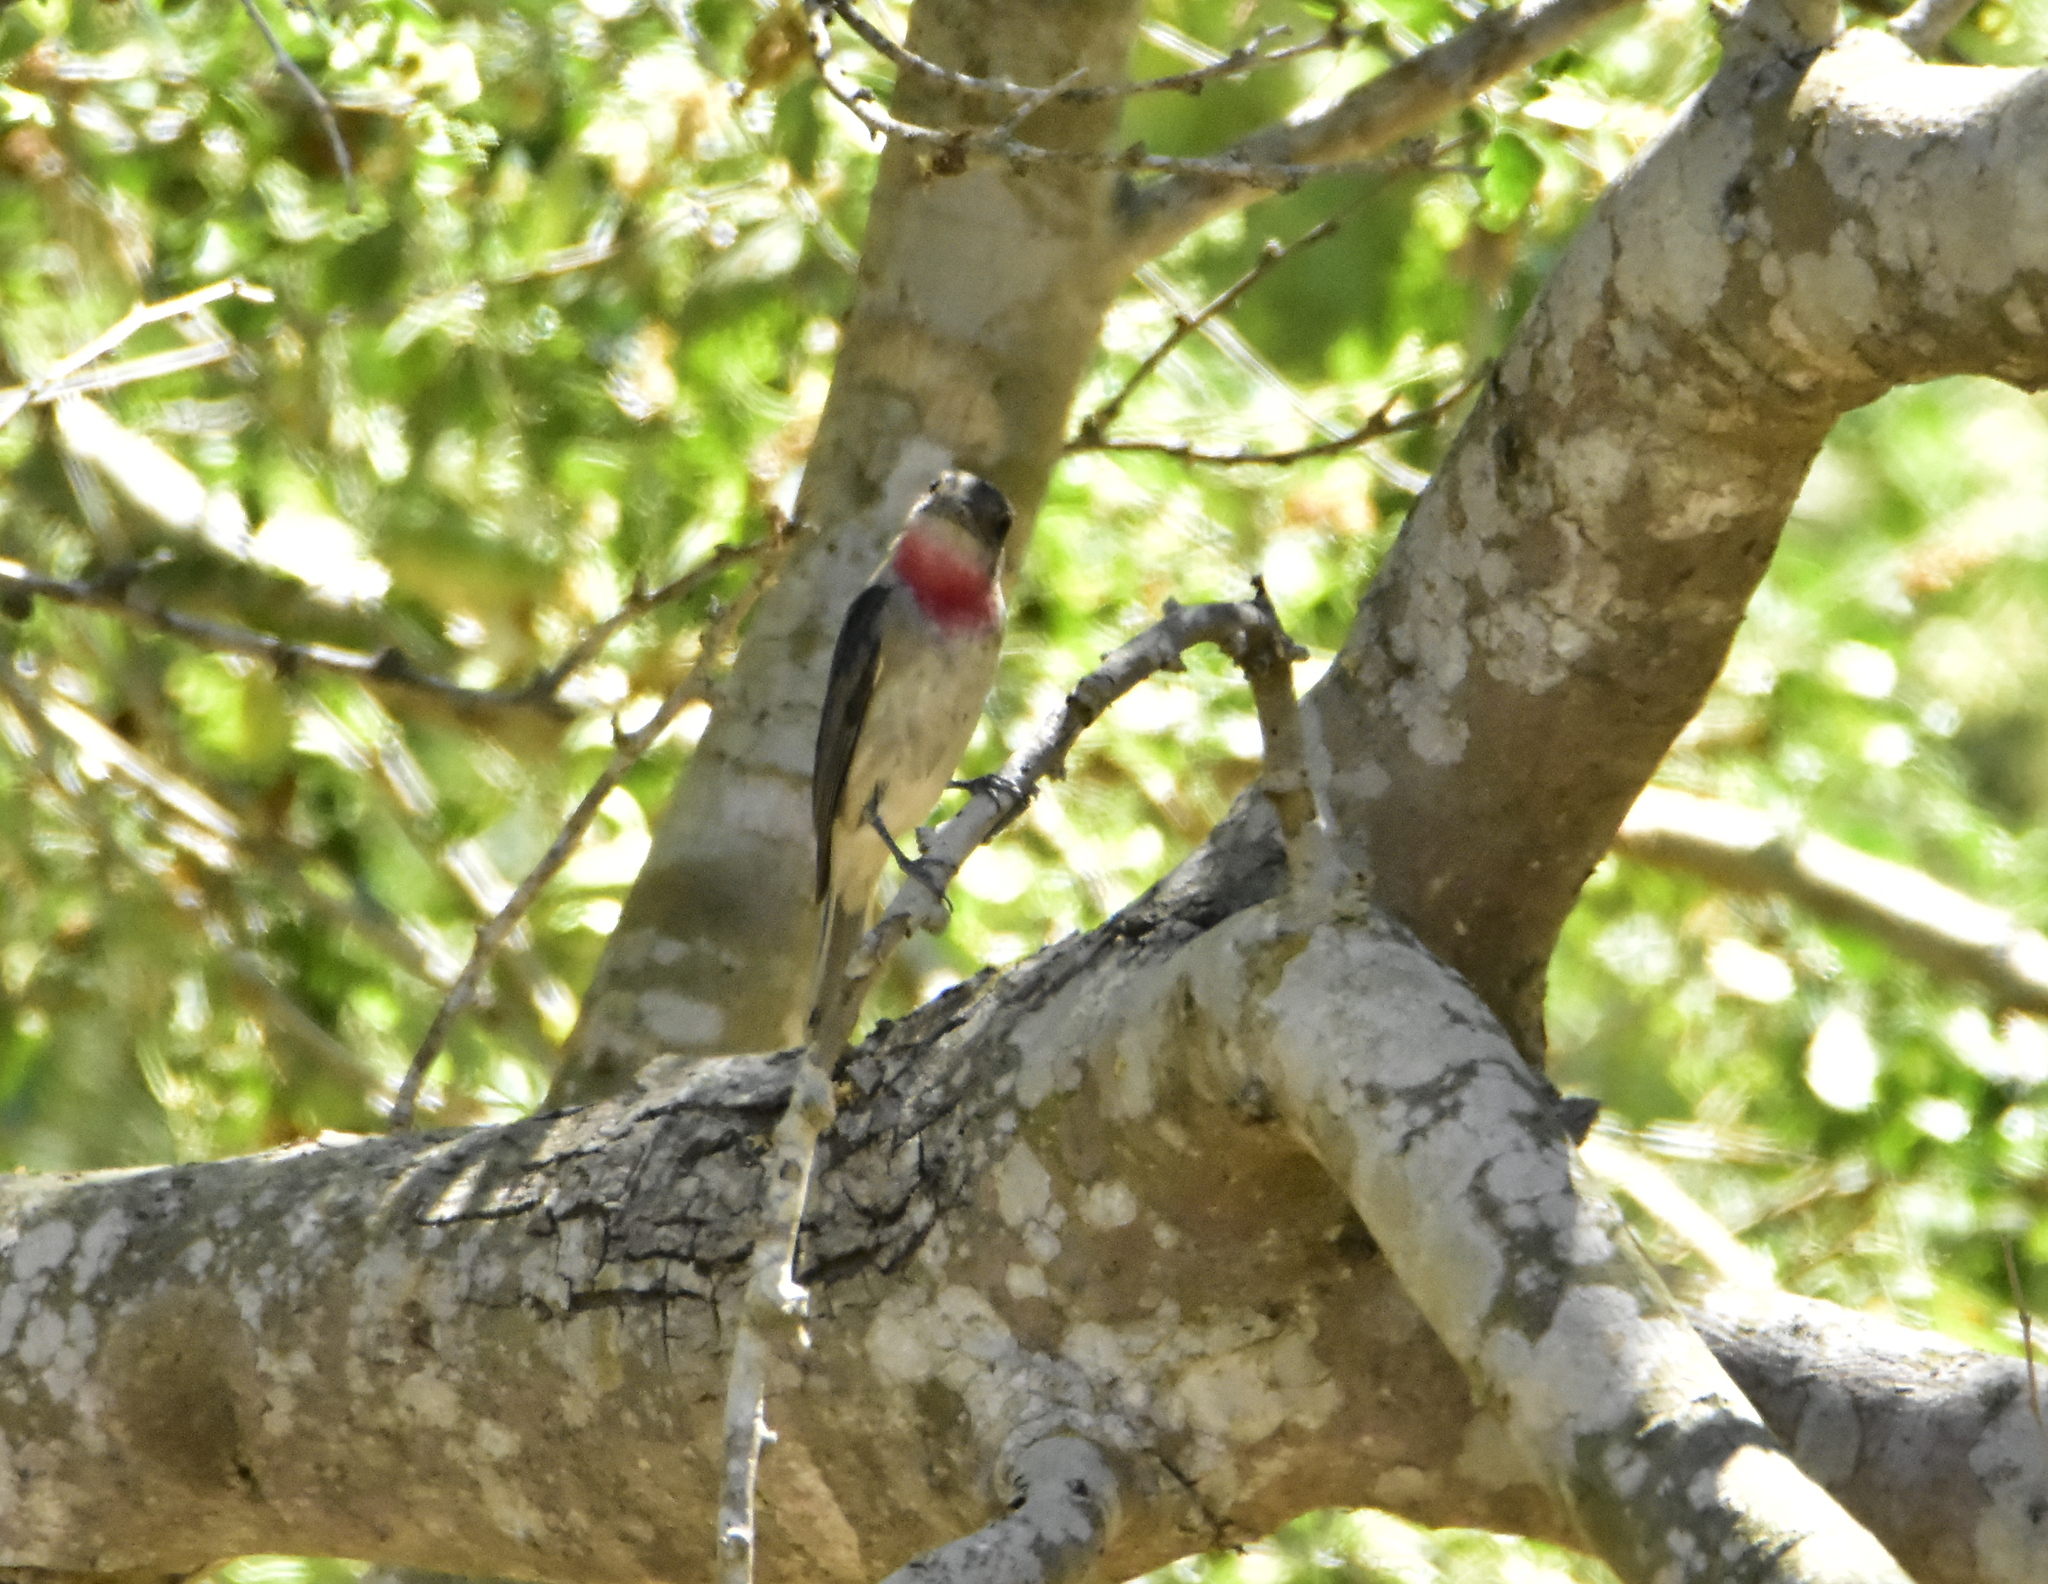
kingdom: Animalia
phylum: Chordata
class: Aves
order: Passeriformes
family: Cotingidae
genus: Pachyramphus
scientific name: Pachyramphus aglaiae
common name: Rose-throated becard
